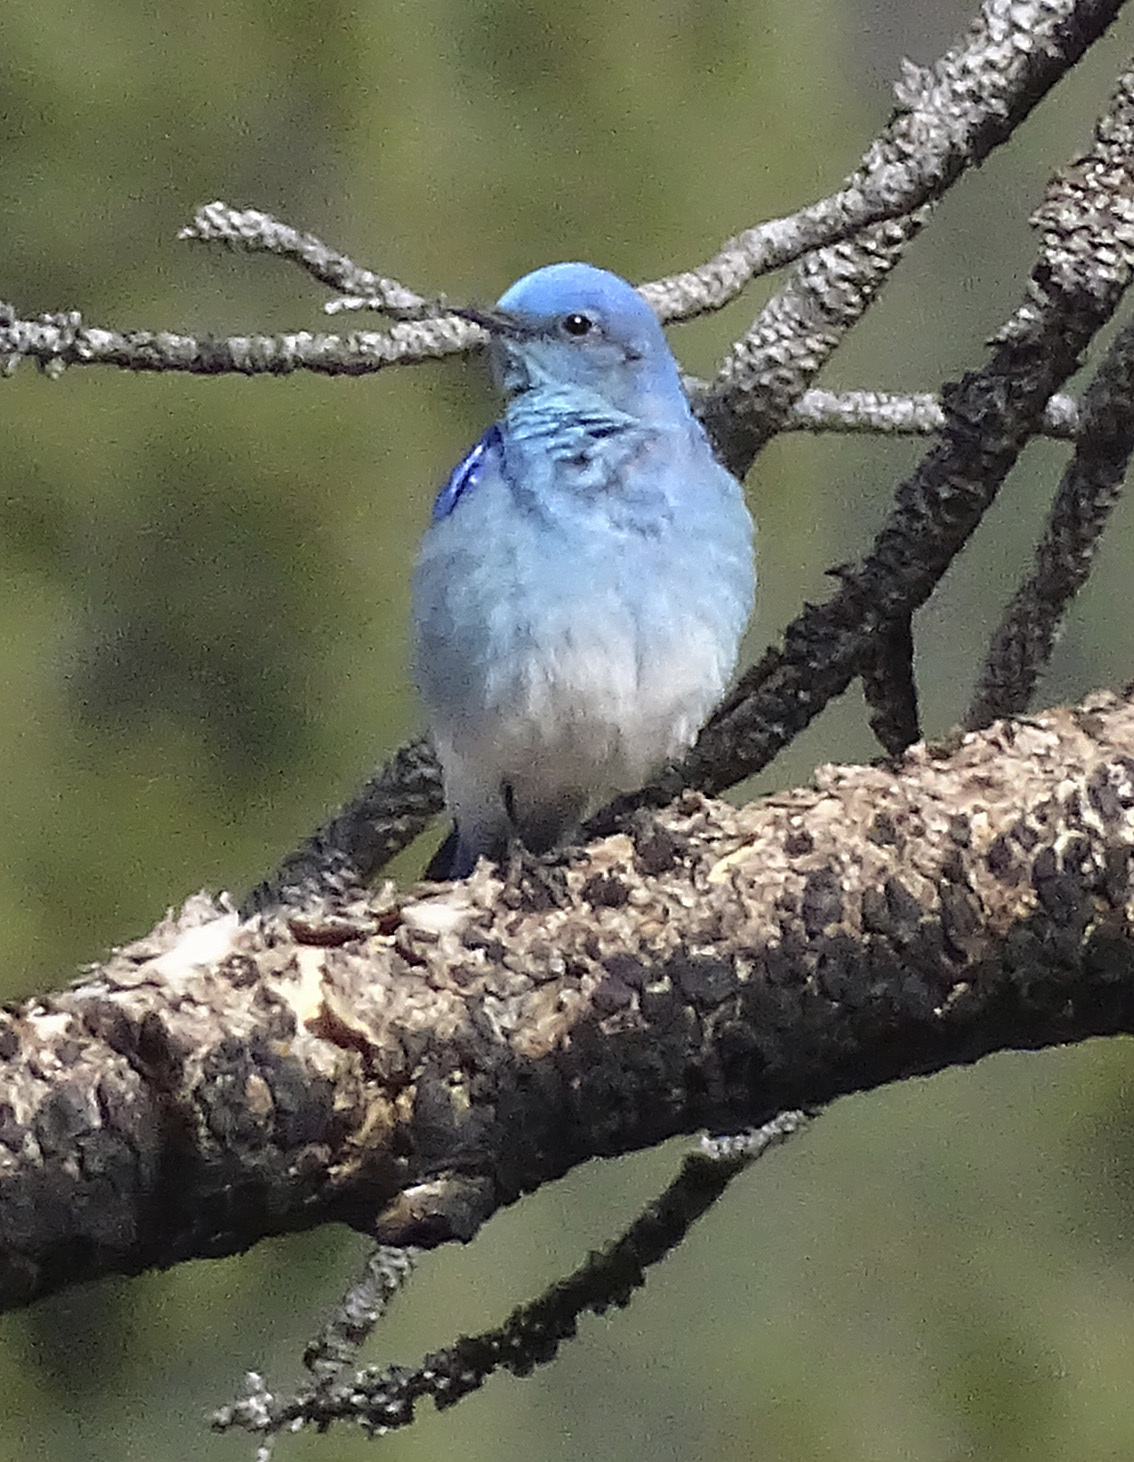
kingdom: Animalia
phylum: Chordata
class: Aves
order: Passeriformes
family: Turdidae
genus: Sialia
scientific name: Sialia currucoides
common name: Mountain bluebird
